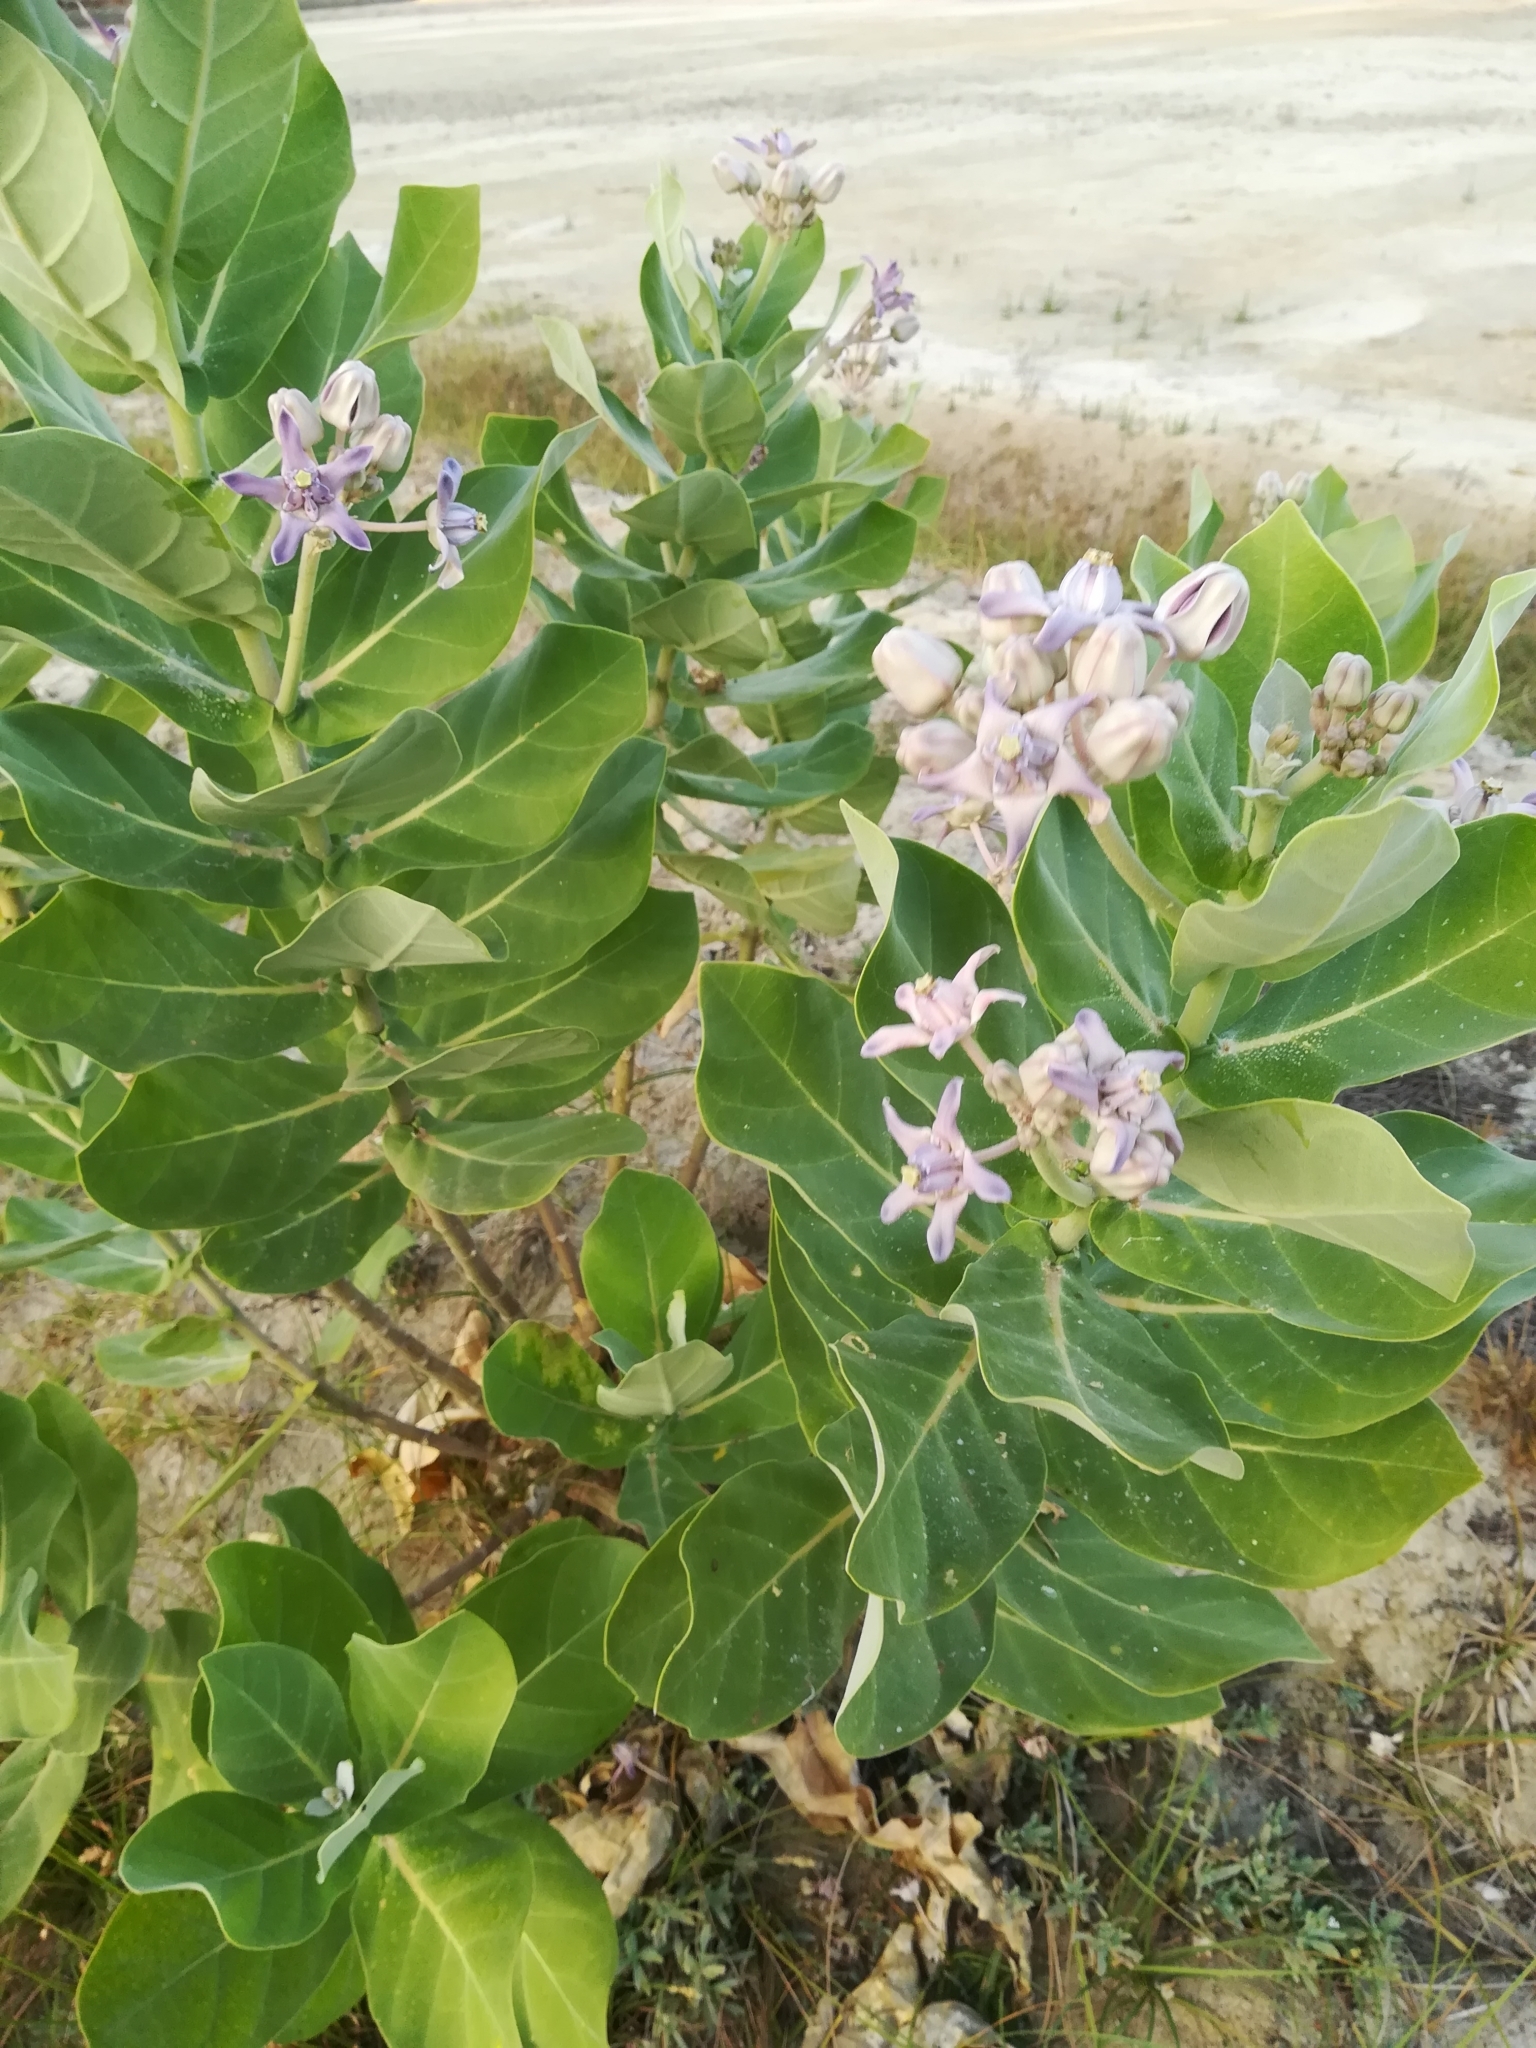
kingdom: Plantae
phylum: Tracheophyta
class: Magnoliopsida
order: Gentianales
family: Apocynaceae
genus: Calotropis
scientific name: Calotropis gigantea
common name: Crown flower
